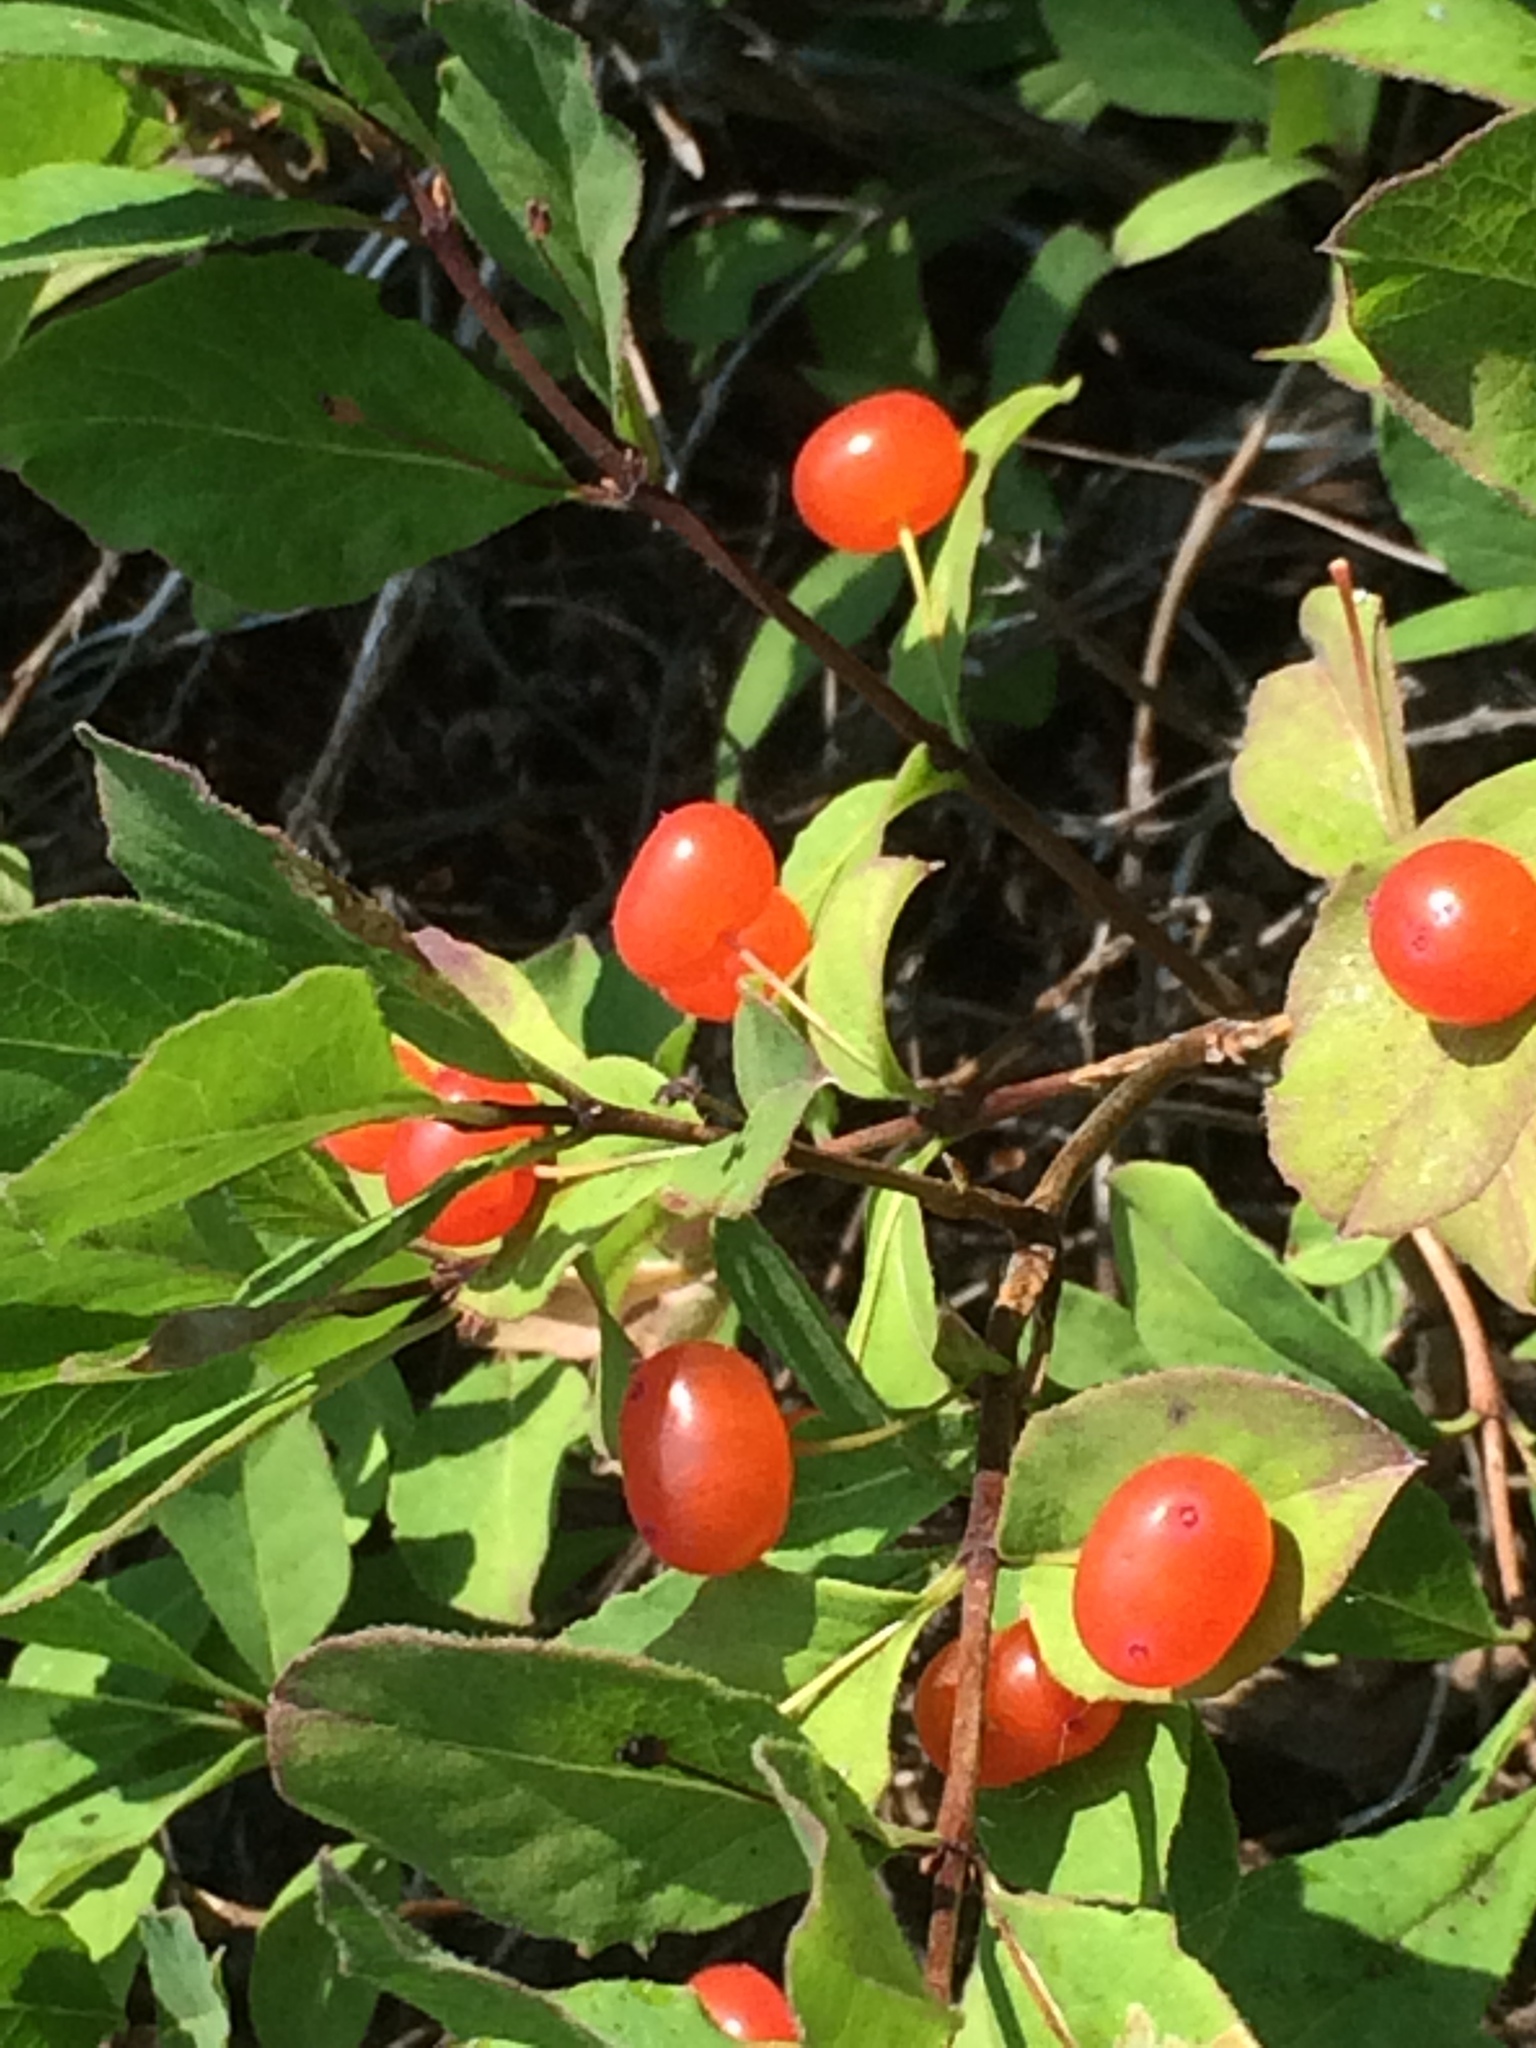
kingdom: Plantae
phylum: Tracheophyta
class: Magnoliopsida
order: Dipsacales
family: Caprifoliaceae
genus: Lonicera
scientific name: Lonicera conjugialis
